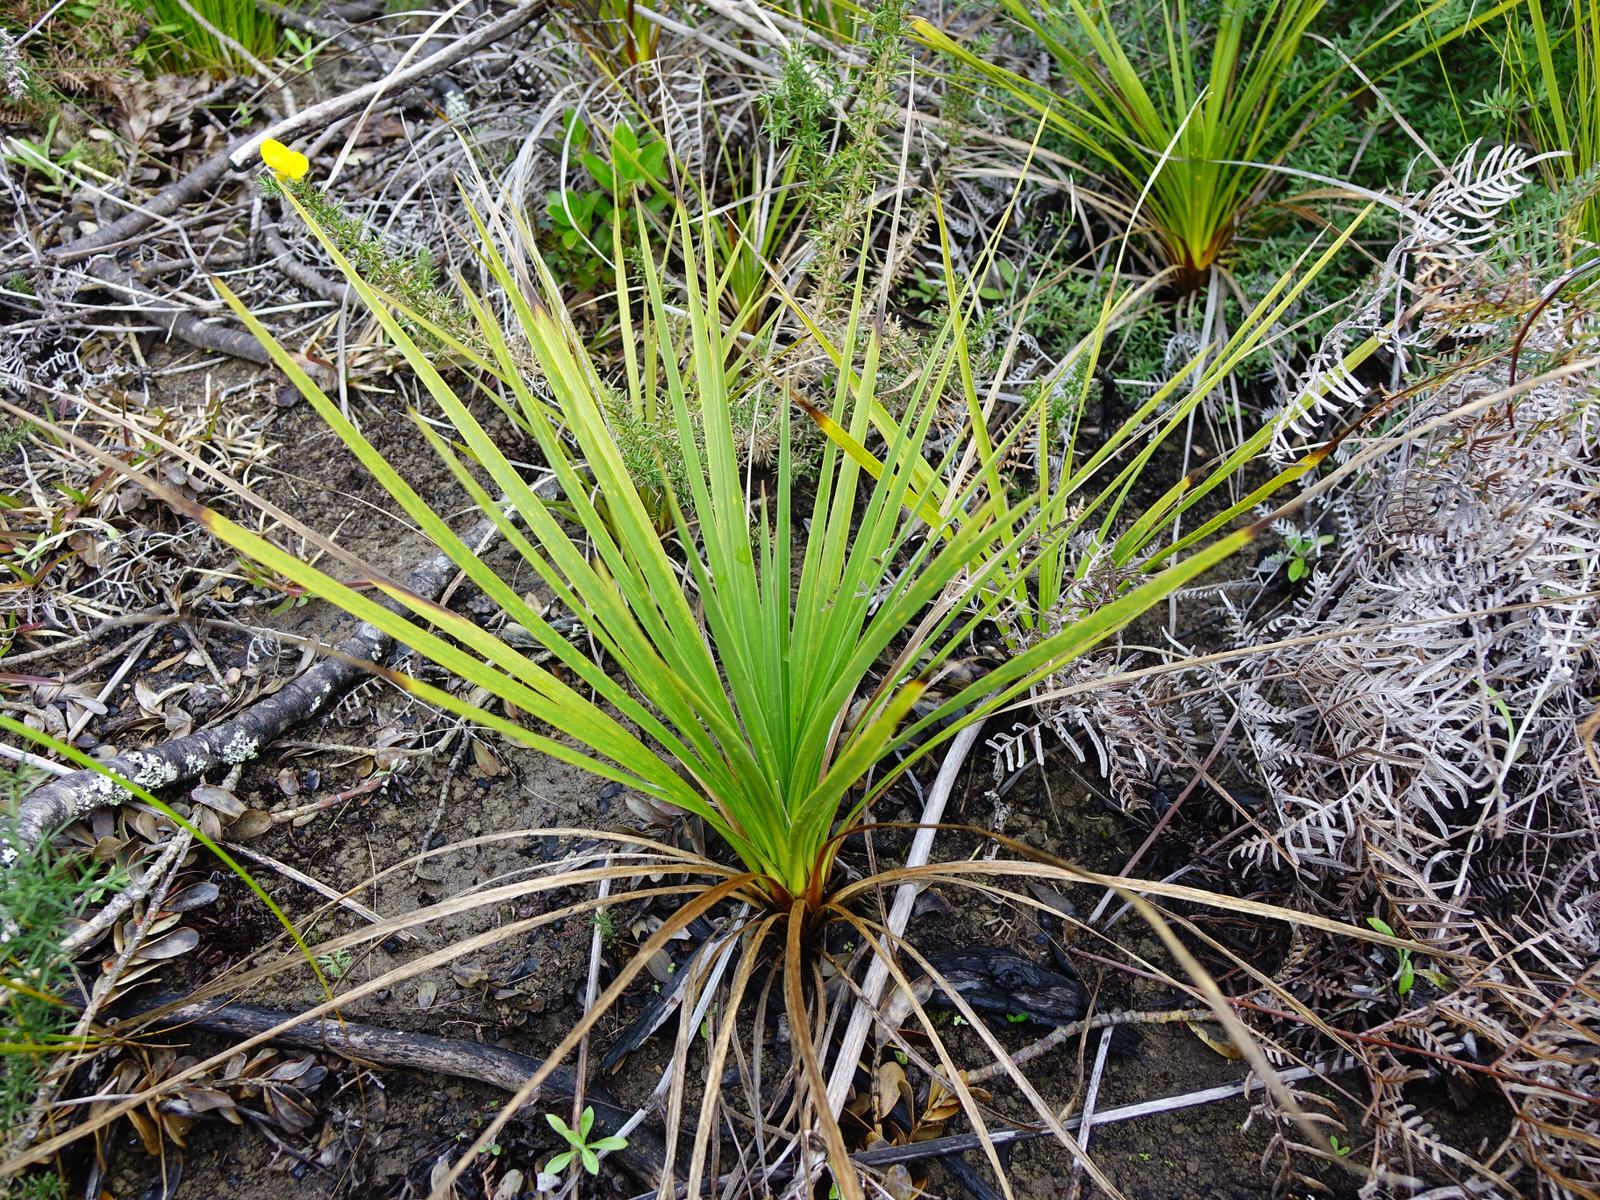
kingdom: Plantae
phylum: Tracheophyta
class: Liliopsida
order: Asparagales
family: Asparagaceae
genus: Cordyline
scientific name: Cordyline australis
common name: Cabbage-palm
